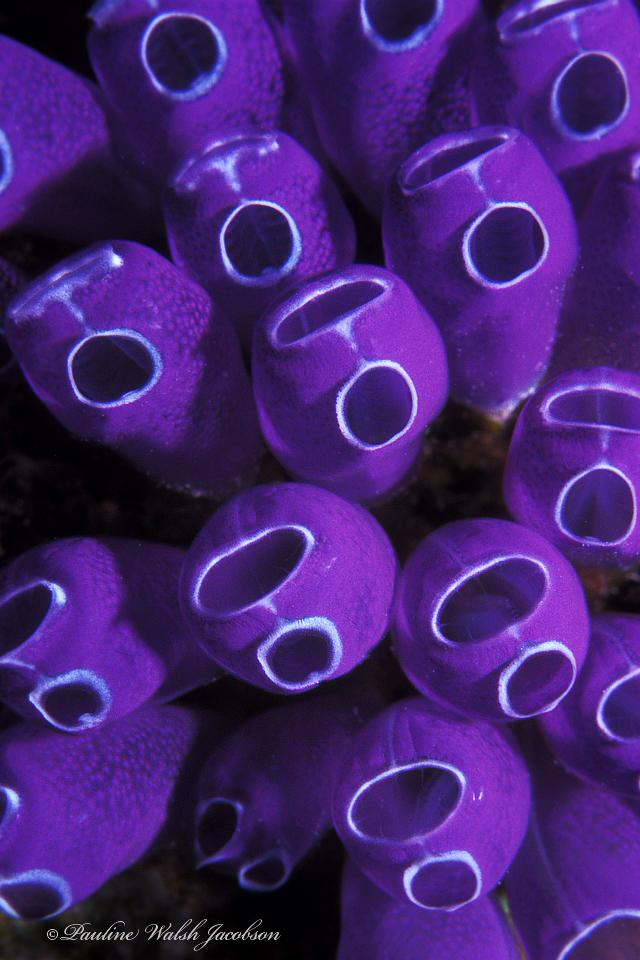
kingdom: Animalia
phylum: Chordata
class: Ascidiacea
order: Aplousobranchia
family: Clavelinidae
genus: Clavelina
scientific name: Clavelina puertosecensis
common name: Blue bell tunicate
